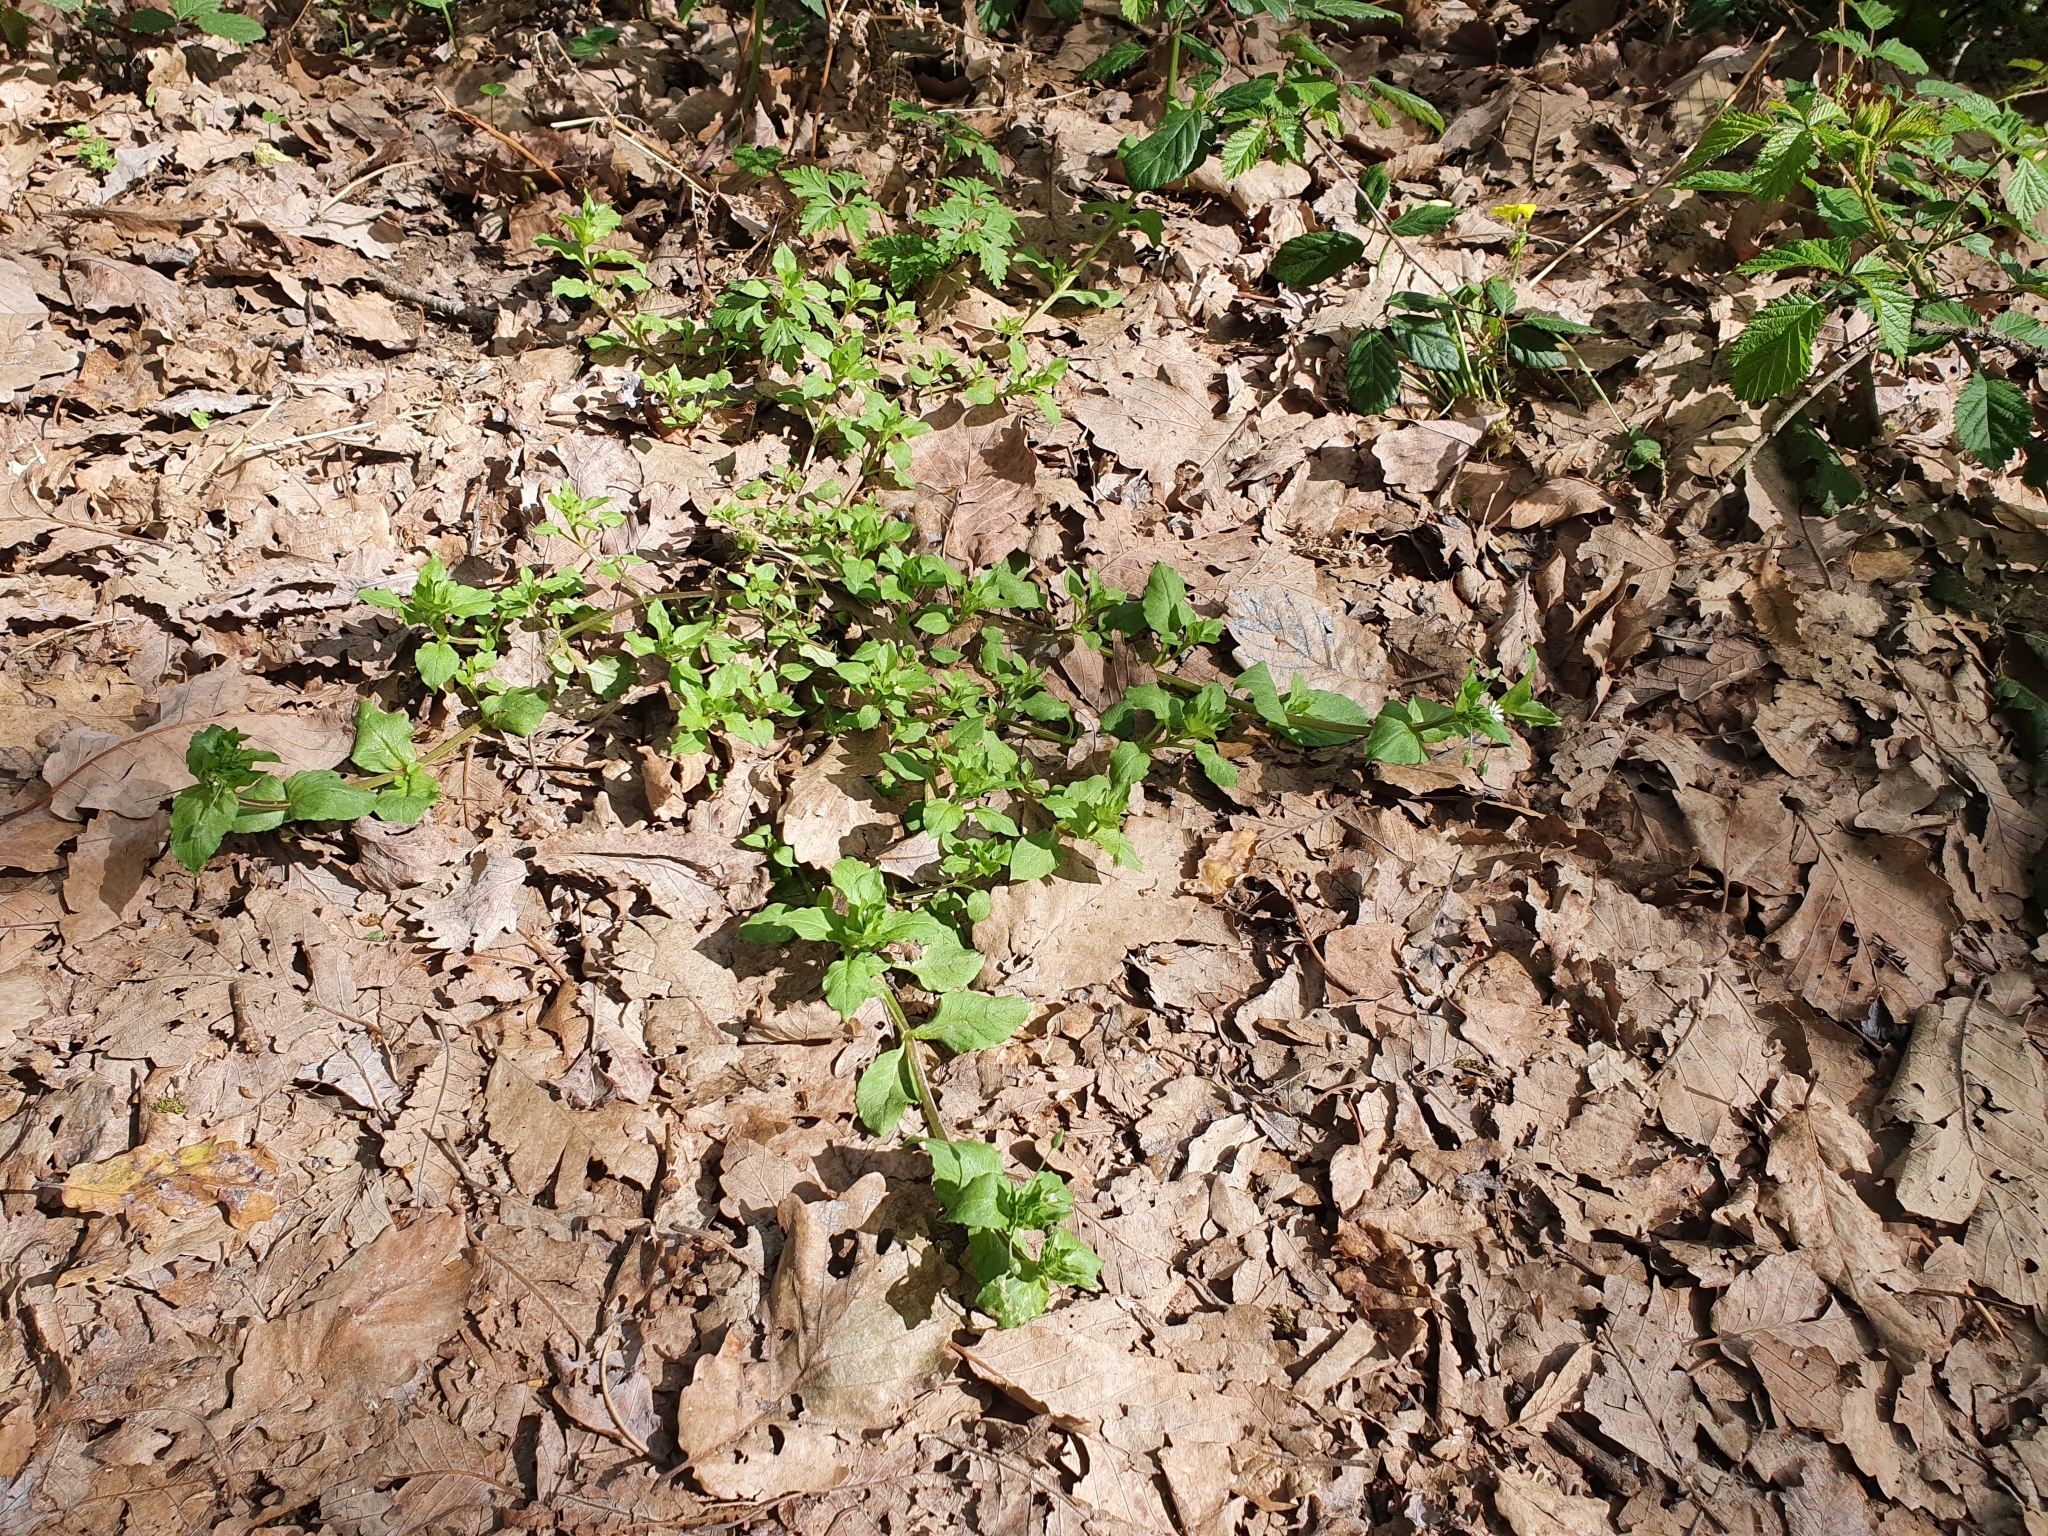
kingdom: Plantae
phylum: Tracheophyta
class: Magnoliopsida
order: Caryophyllales
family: Caryophyllaceae
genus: Stellaria
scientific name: Stellaria media
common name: Common chickweed
